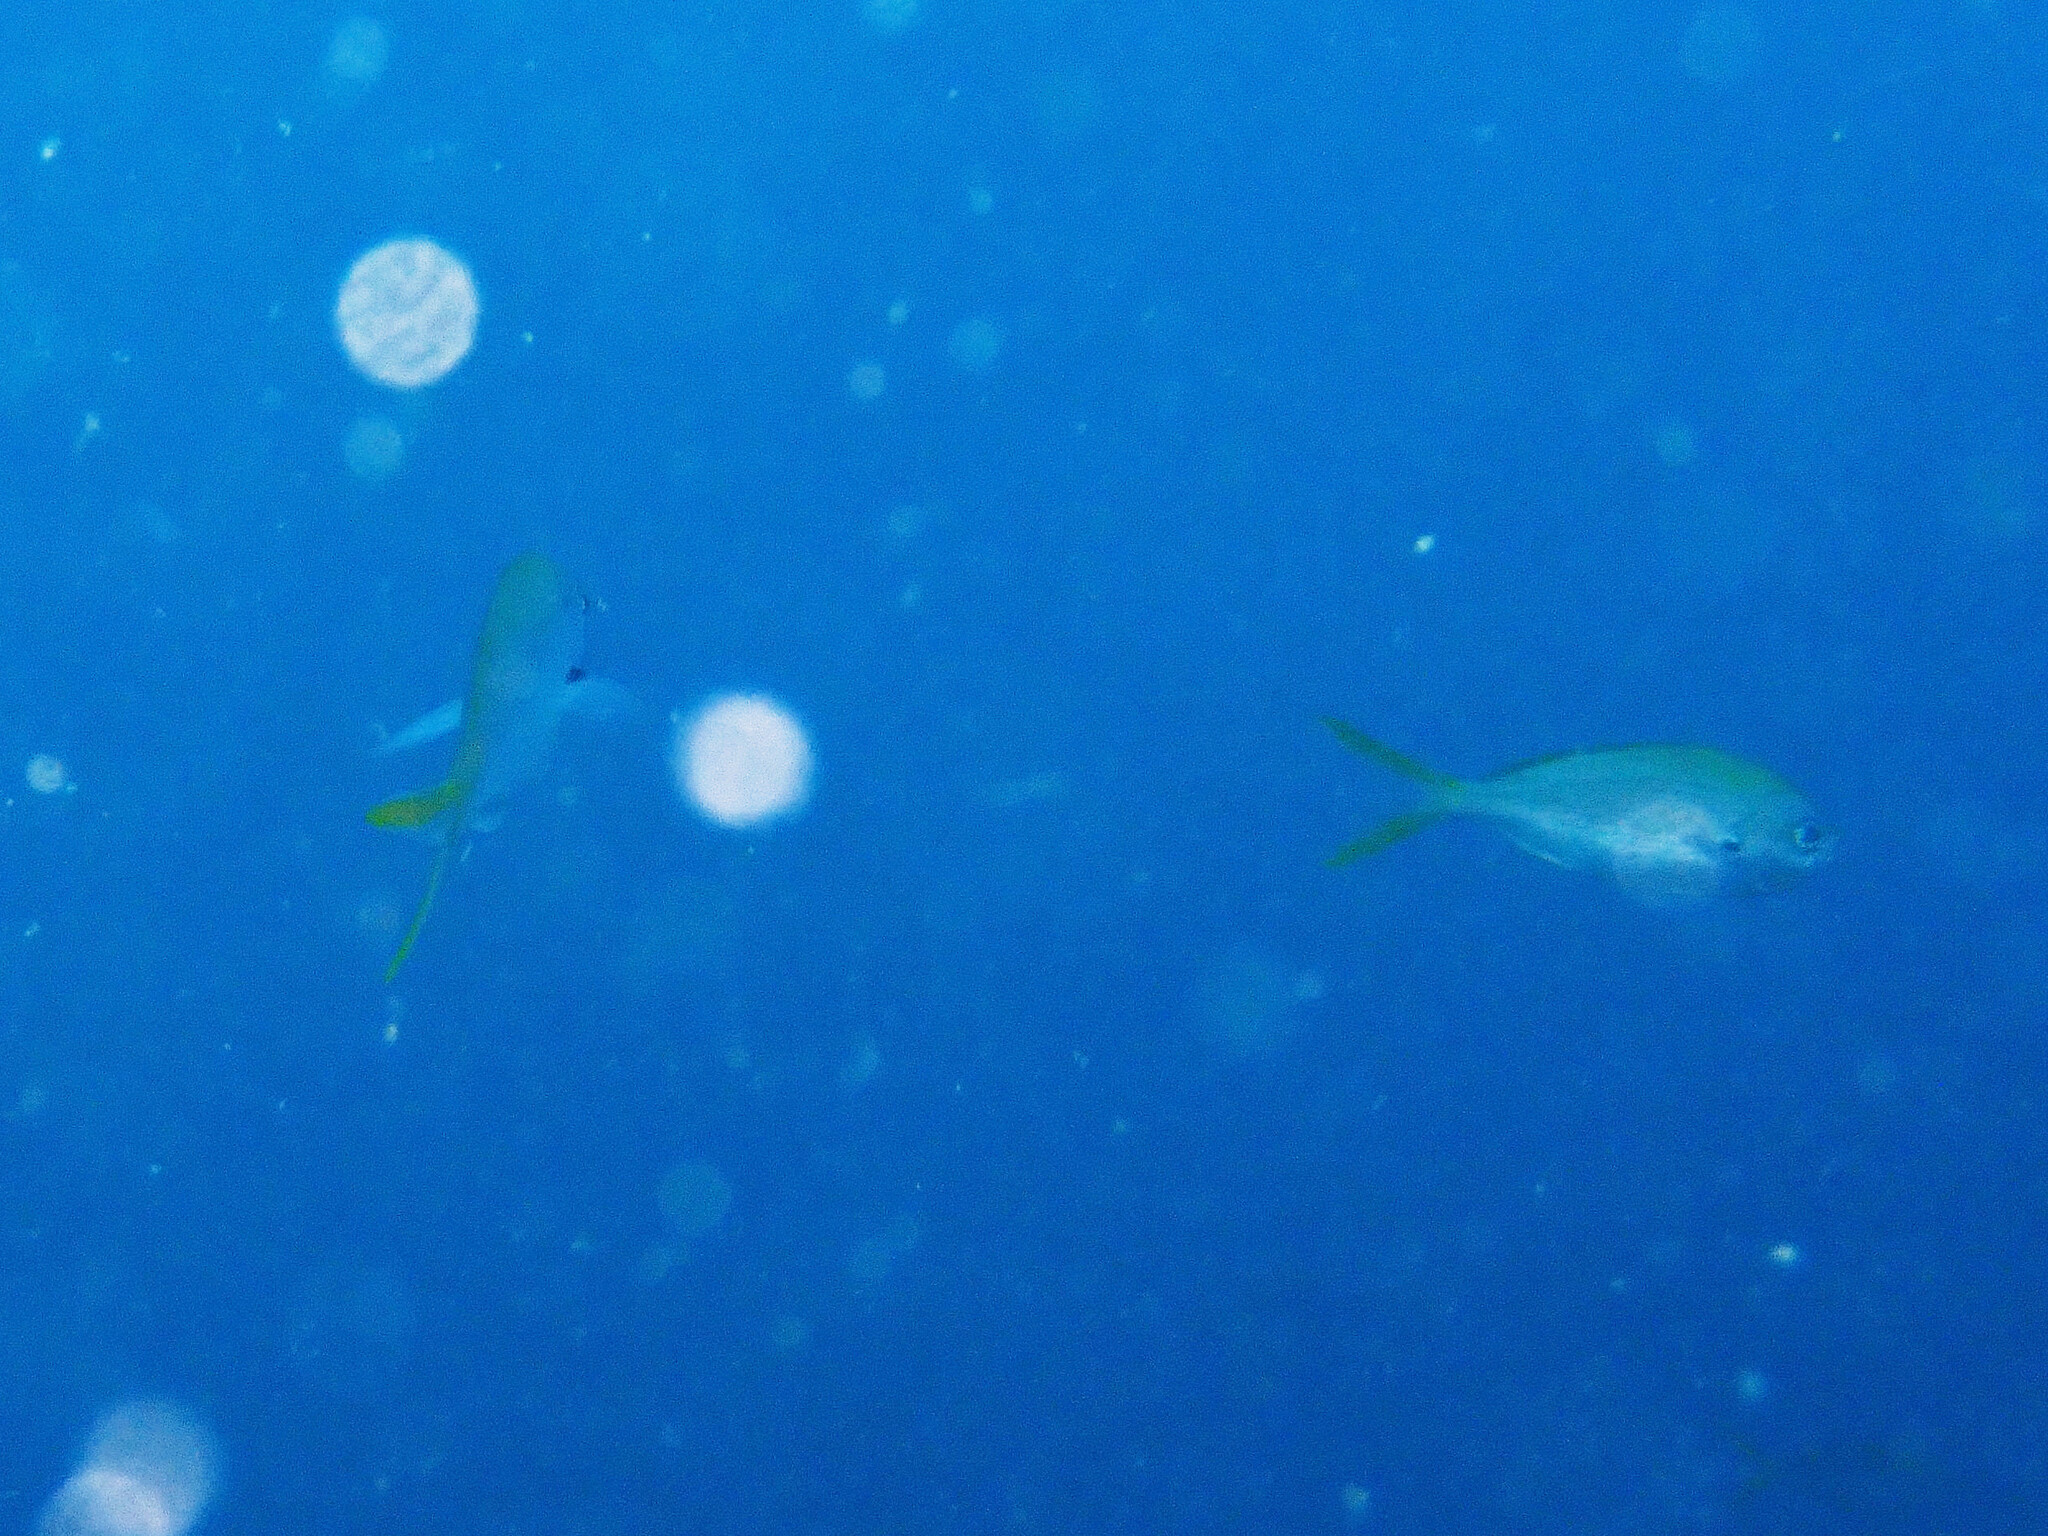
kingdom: Animalia
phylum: Chordata
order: Perciformes
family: Caesionidae
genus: Caesio
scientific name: Caesio cuning
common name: Red-bellied fusilier
